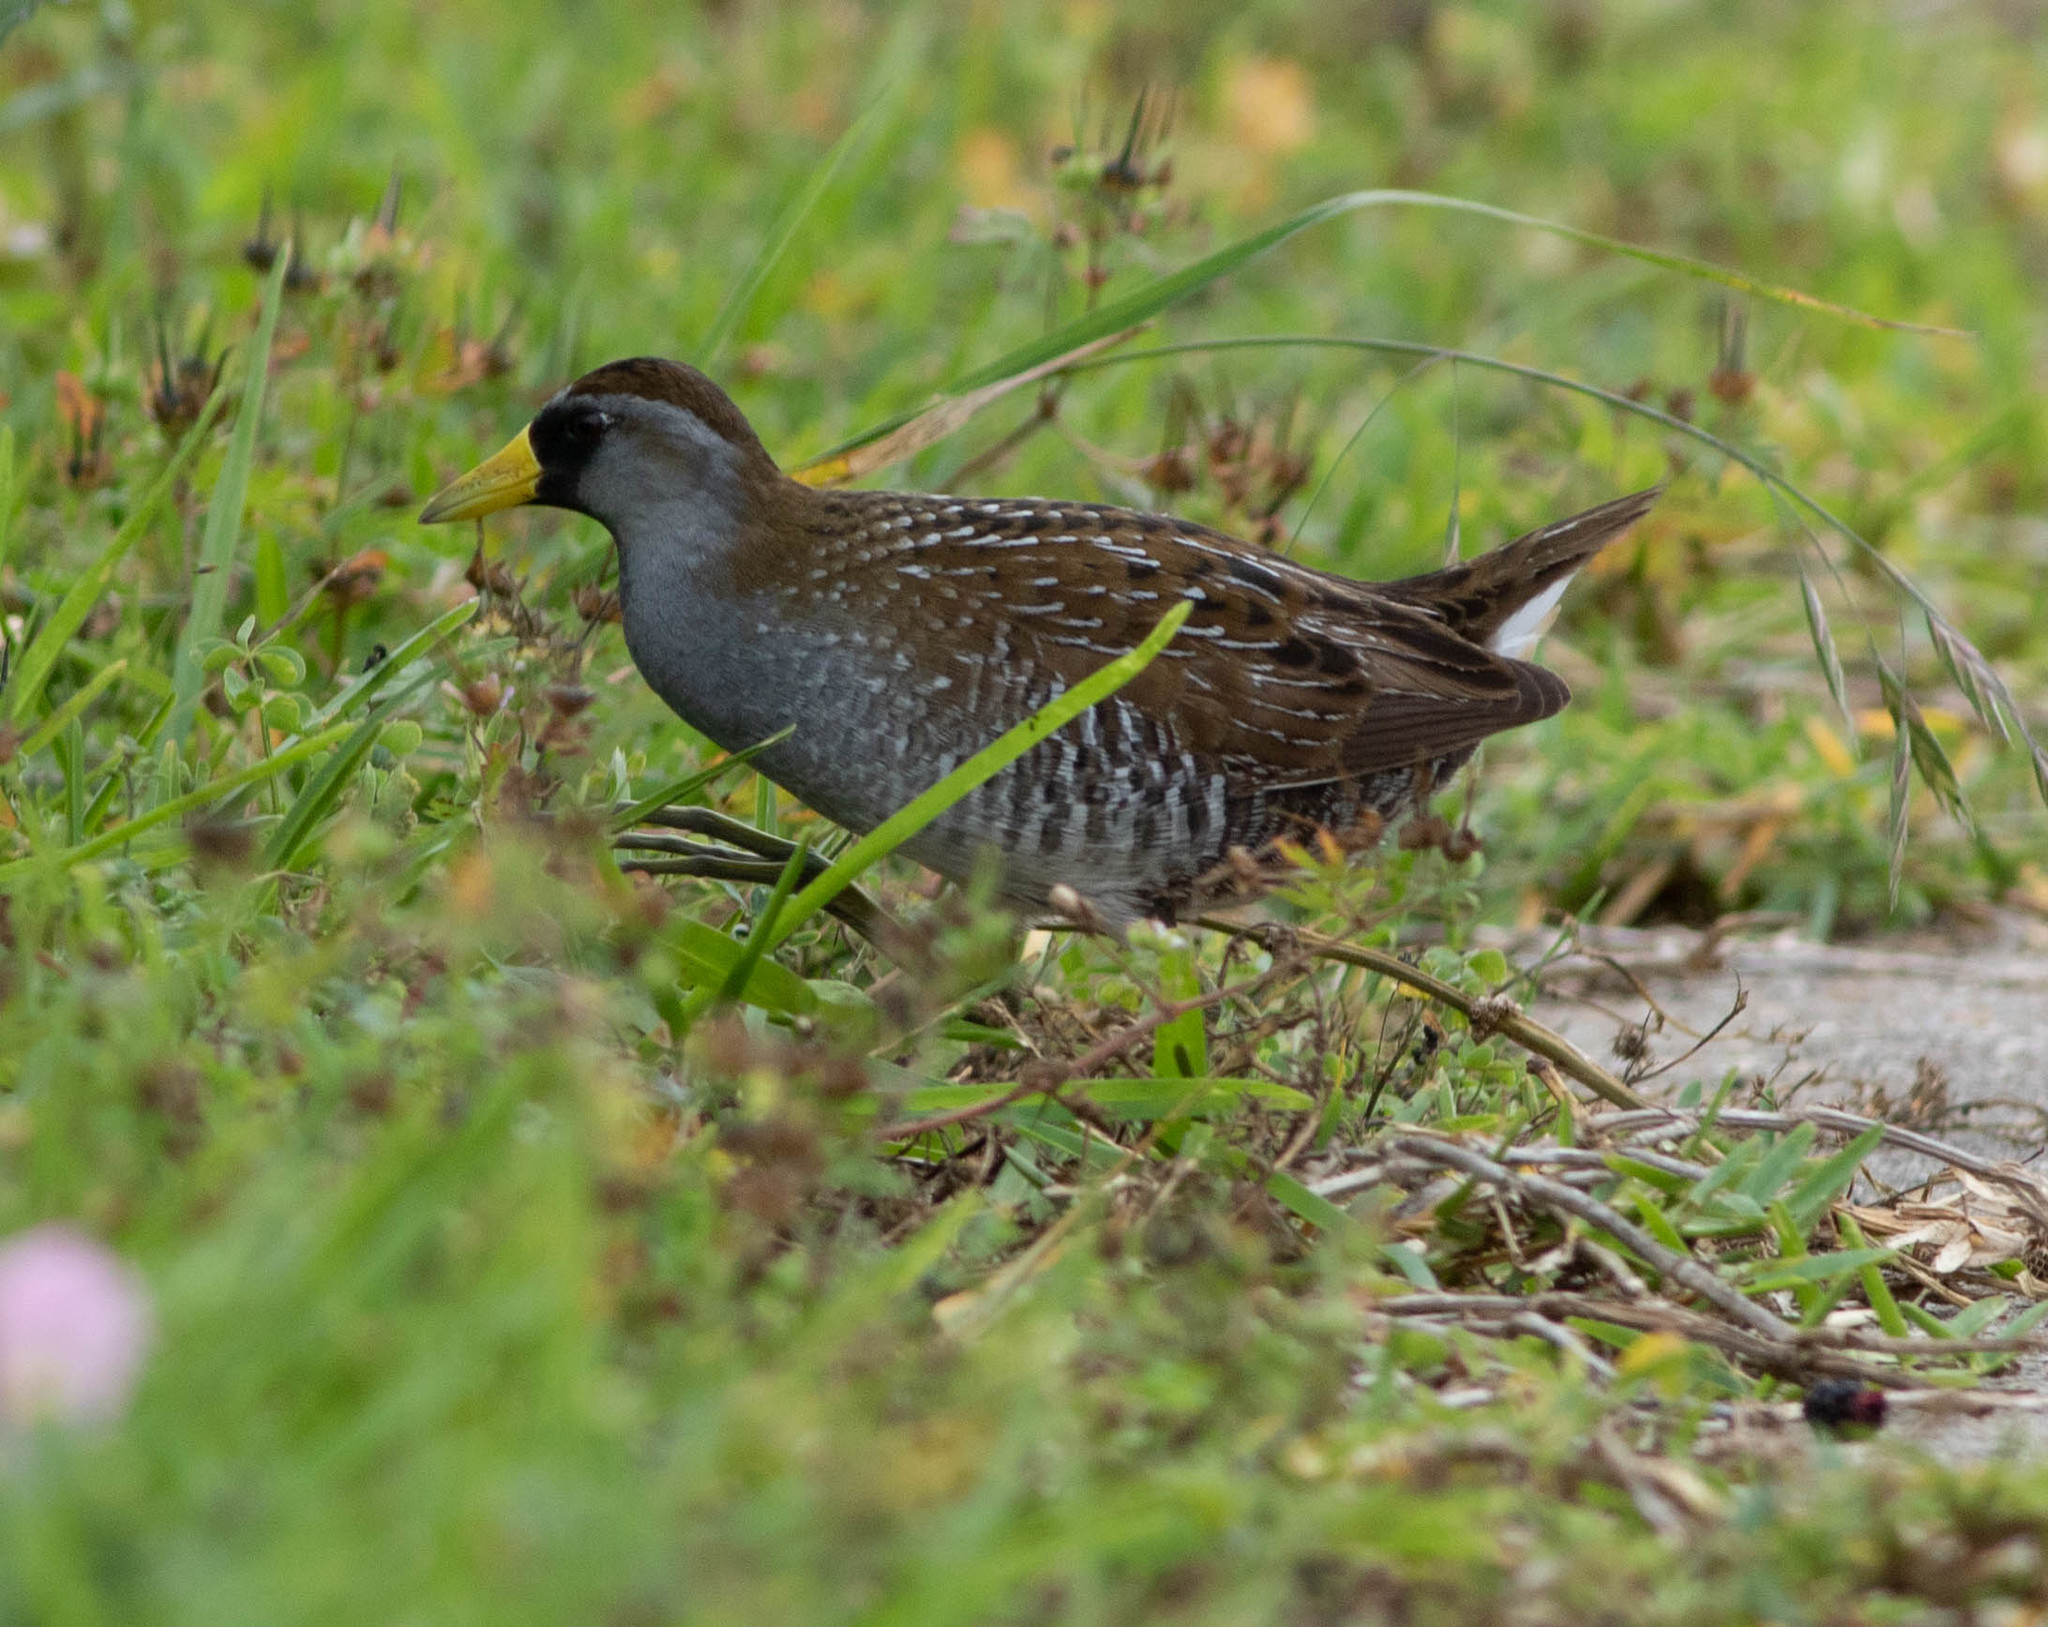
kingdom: Animalia
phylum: Chordata
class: Aves
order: Gruiformes
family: Rallidae
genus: Porzana
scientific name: Porzana carolina
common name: Sora
